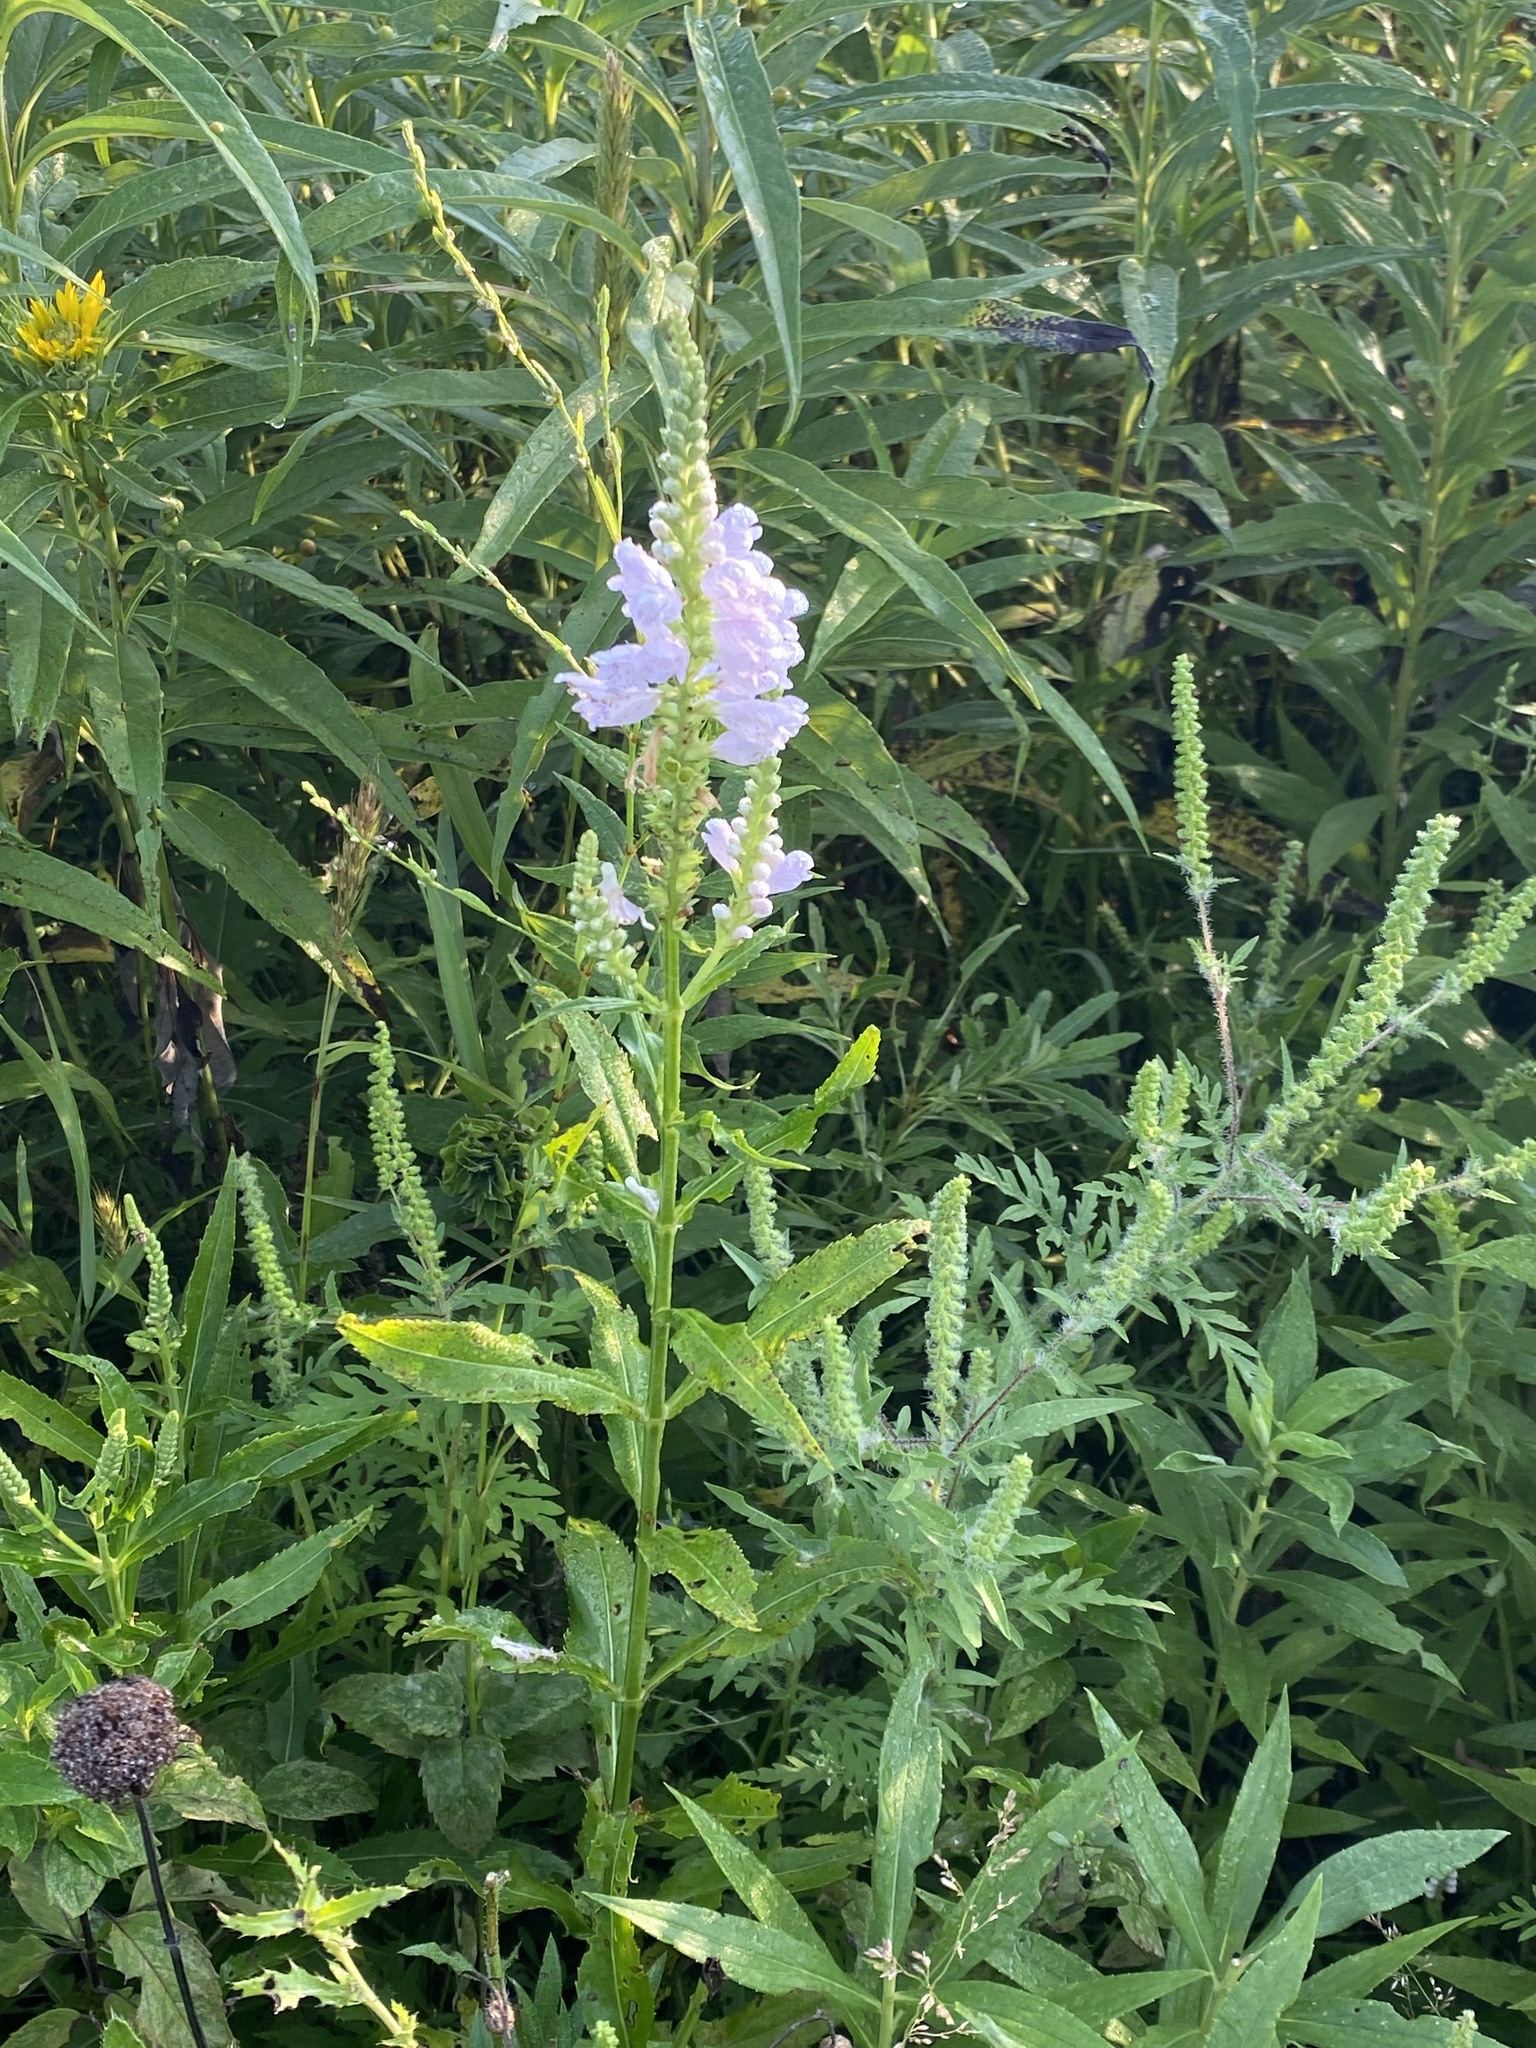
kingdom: Plantae
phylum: Tracheophyta
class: Magnoliopsida
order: Lamiales
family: Lamiaceae
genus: Physostegia
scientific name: Physostegia virginiana
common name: Obedient-plant
